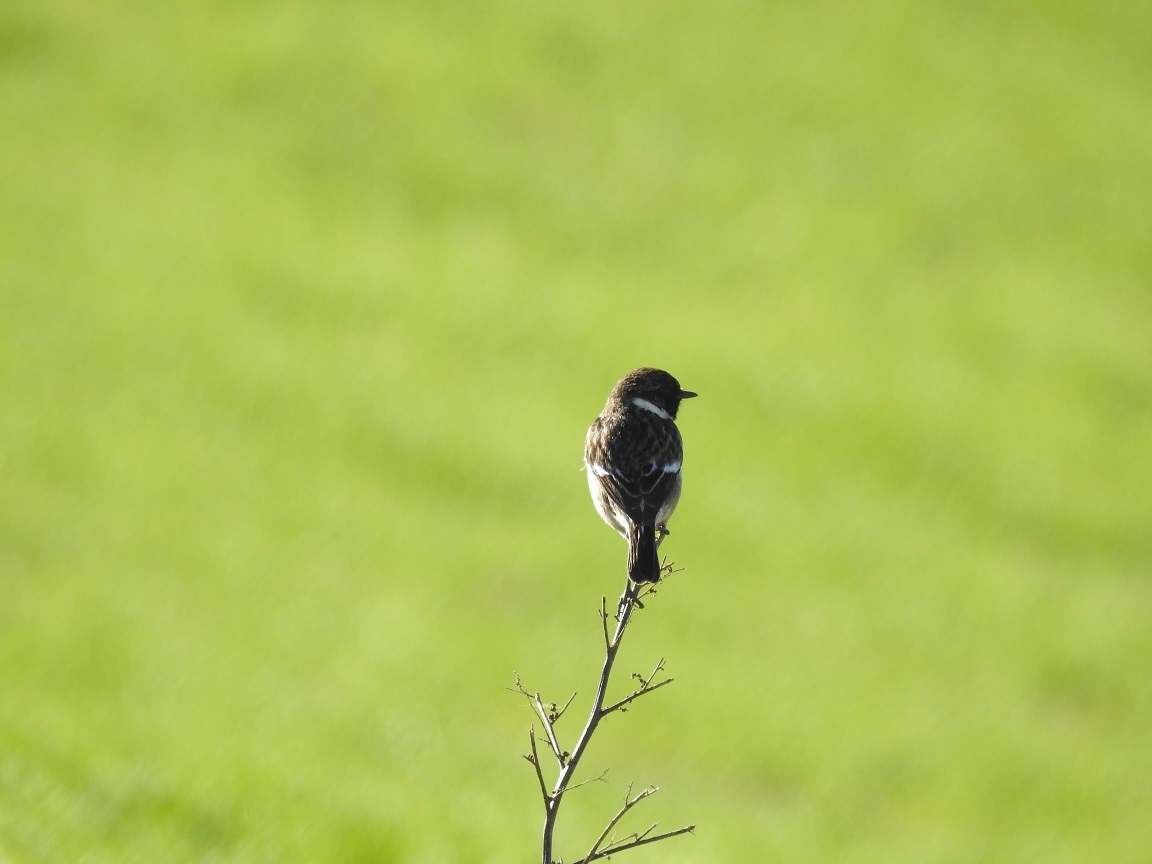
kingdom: Animalia
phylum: Chordata
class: Aves
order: Passeriformes
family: Muscicapidae
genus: Saxicola
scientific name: Saxicola rubicola
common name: European stonechat
